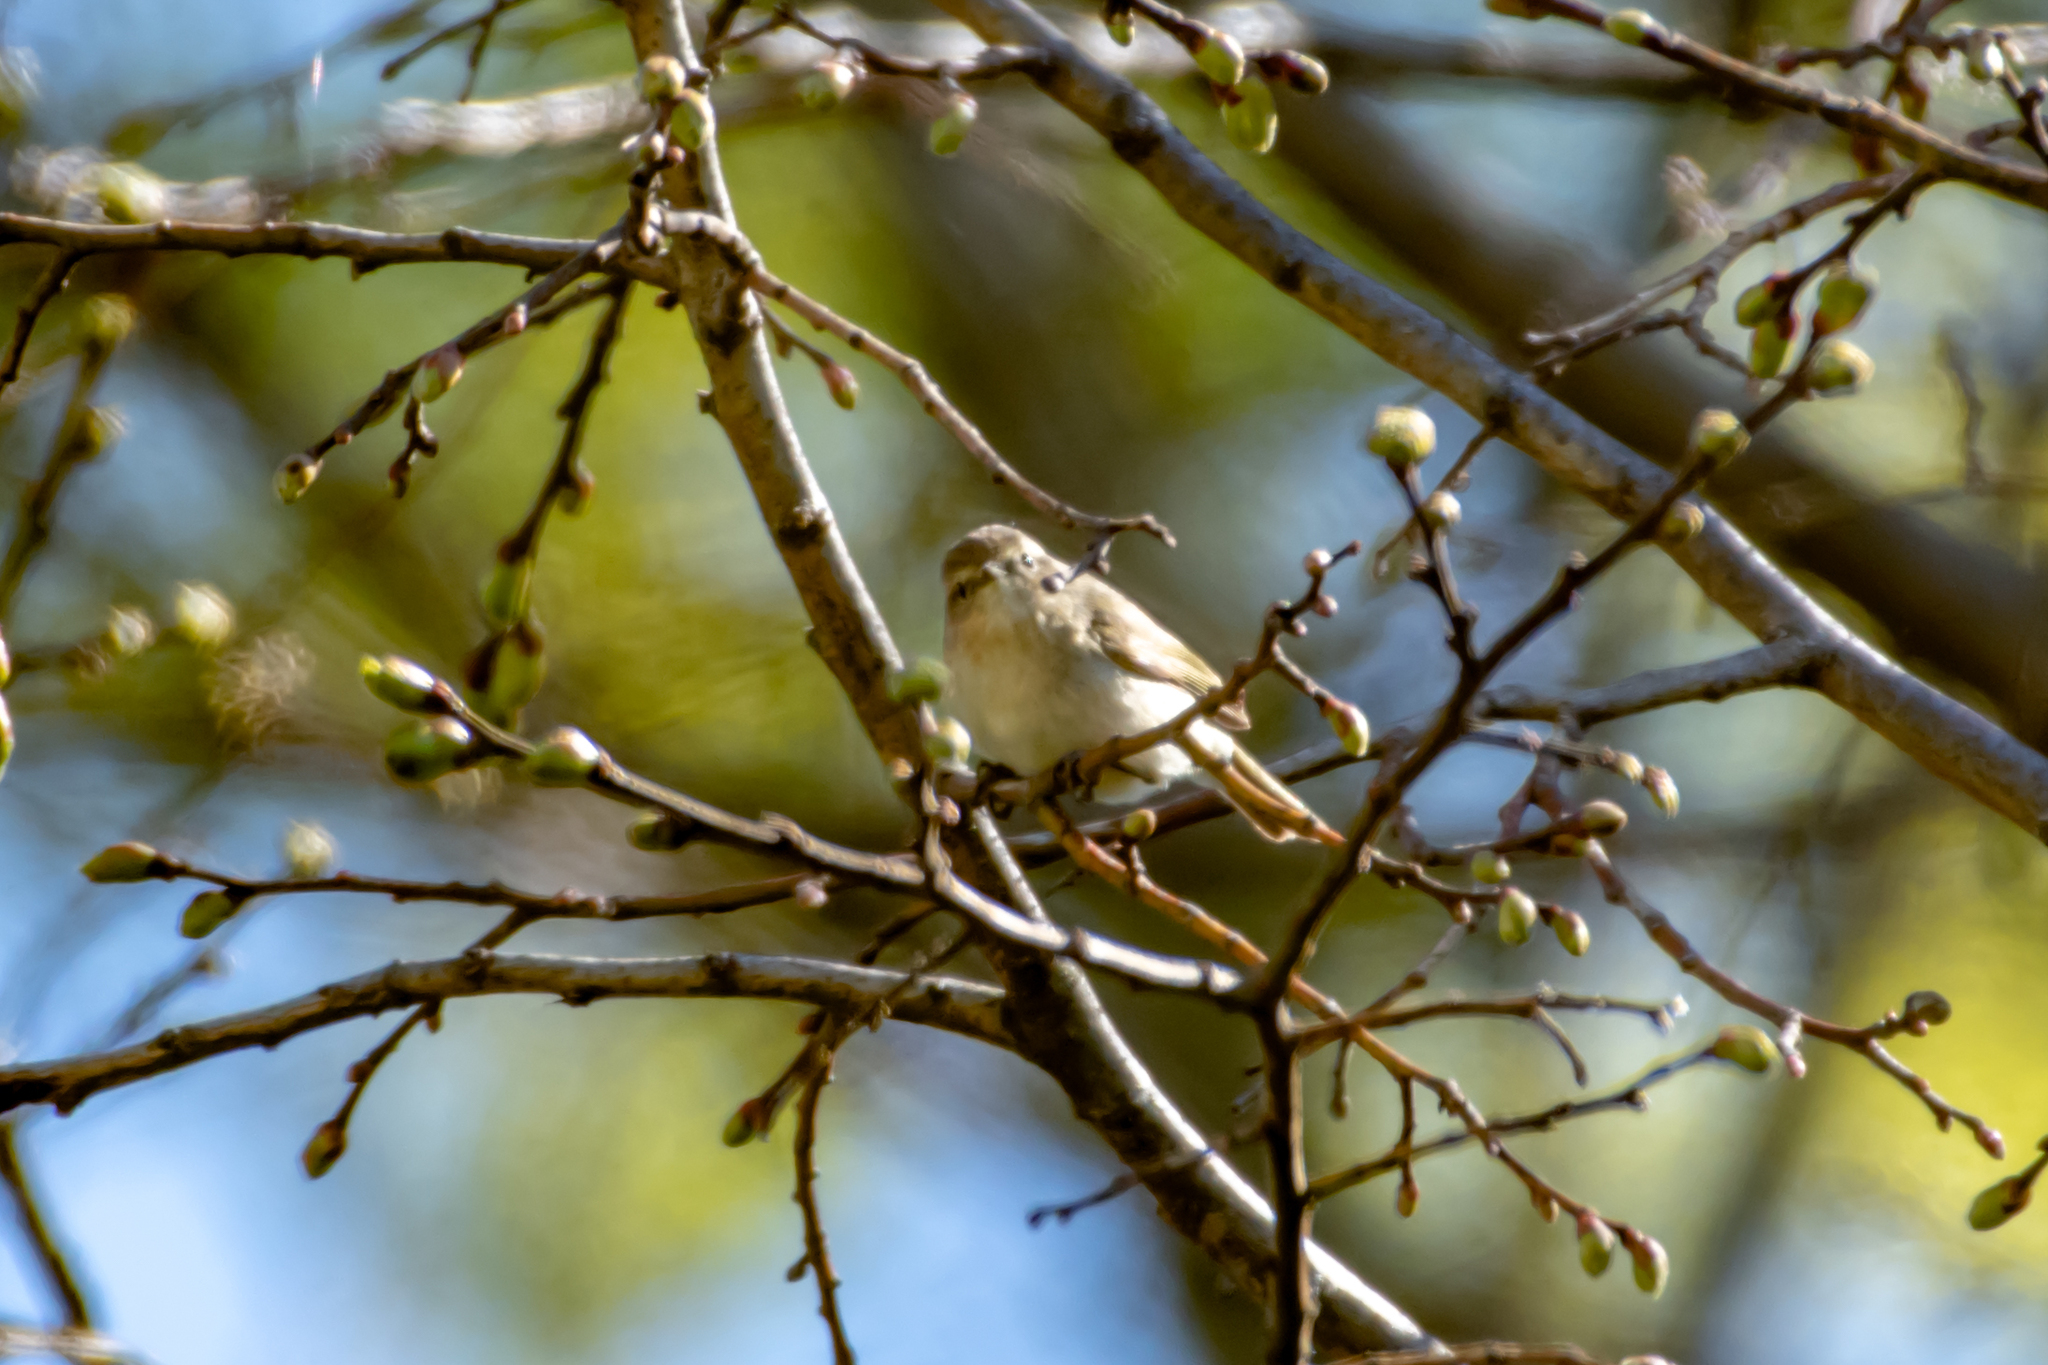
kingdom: Animalia
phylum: Chordata
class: Aves
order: Passeriformes
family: Phylloscopidae
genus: Phylloscopus
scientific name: Phylloscopus collybita
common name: Common chiffchaff
